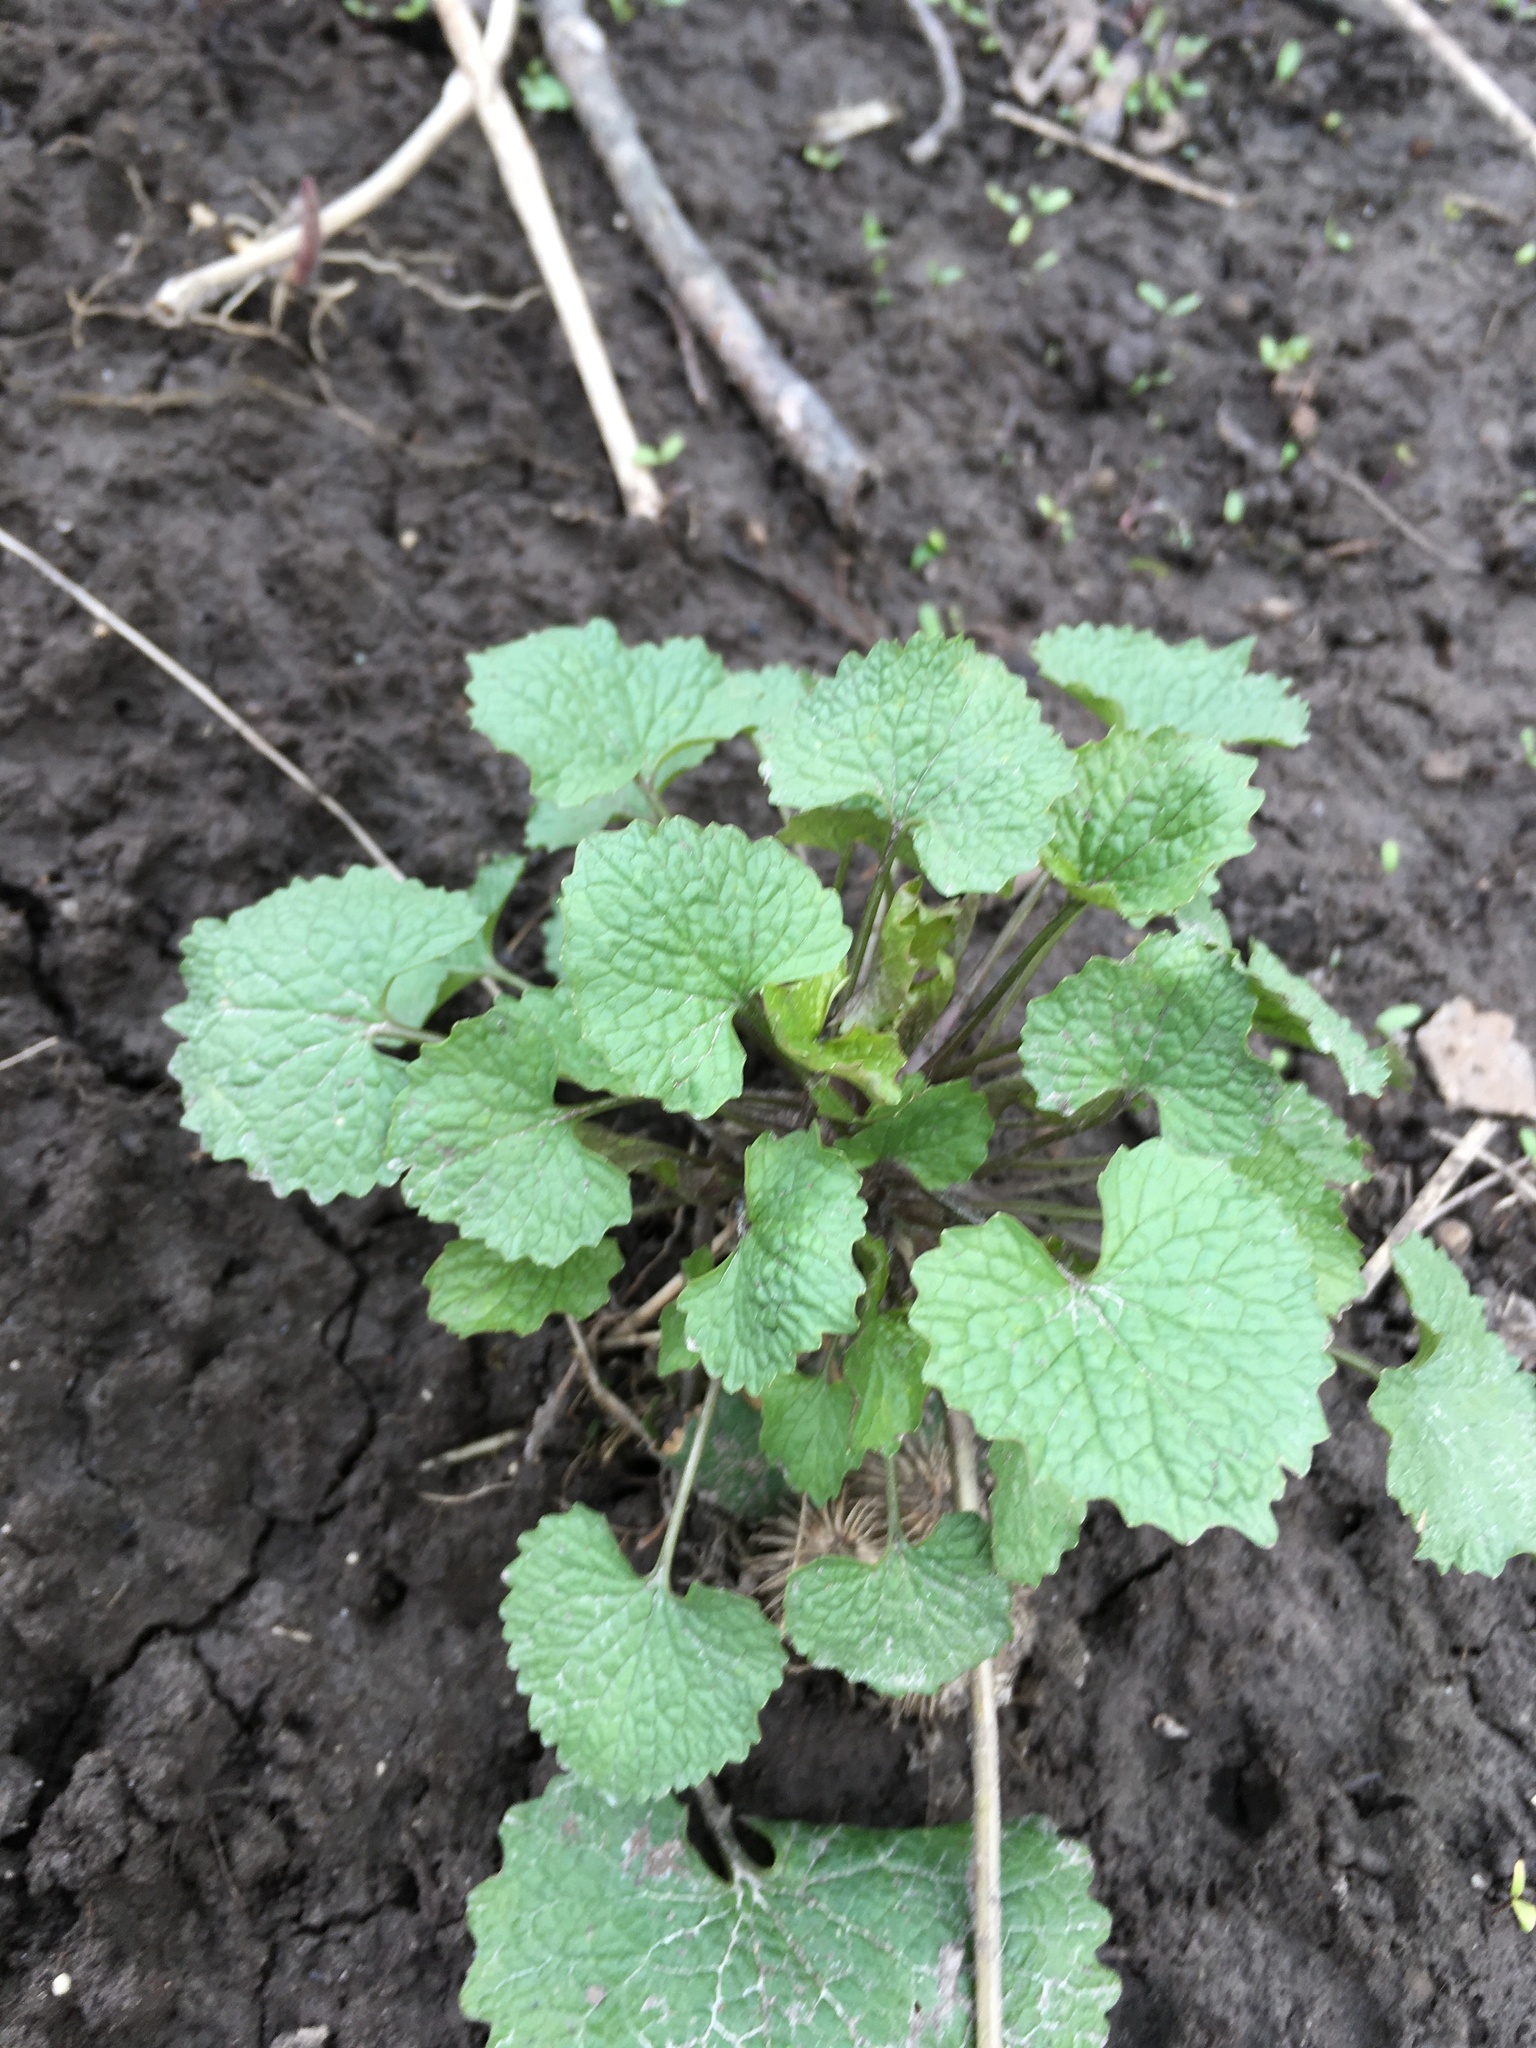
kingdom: Plantae
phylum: Tracheophyta
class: Magnoliopsida
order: Brassicales
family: Brassicaceae
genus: Alliaria
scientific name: Alliaria petiolata
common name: Garlic mustard
